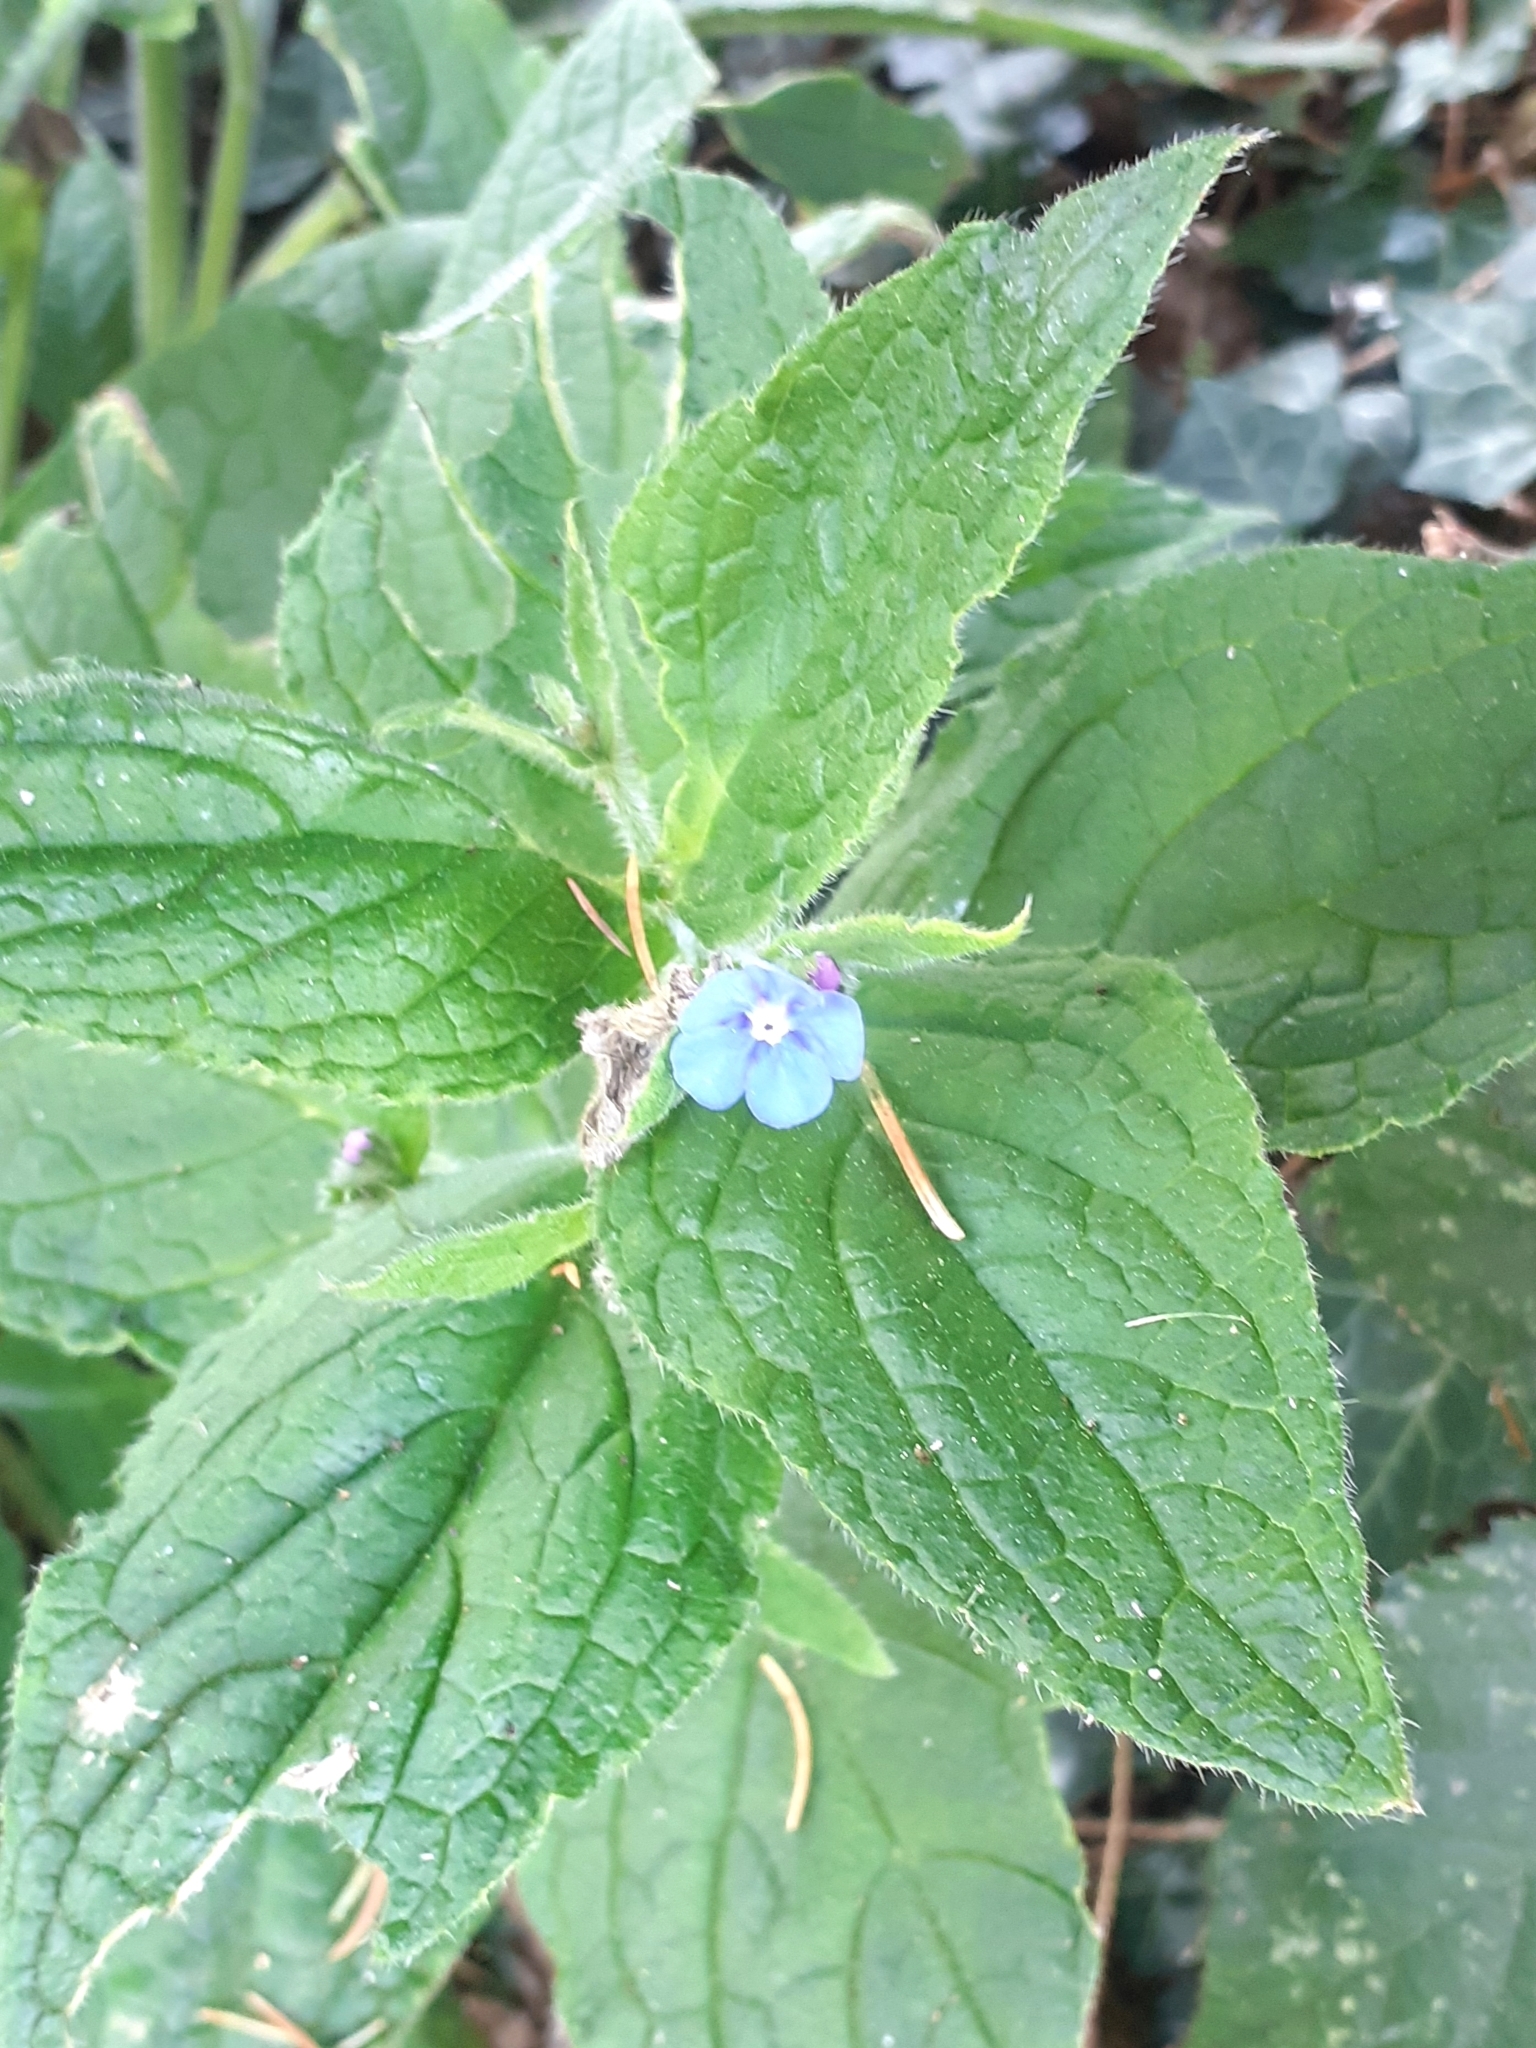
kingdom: Plantae
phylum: Tracheophyta
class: Magnoliopsida
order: Boraginales
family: Boraginaceae
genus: Pentaglottis
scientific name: Pentaglottis sempervirens
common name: Green alkanet
